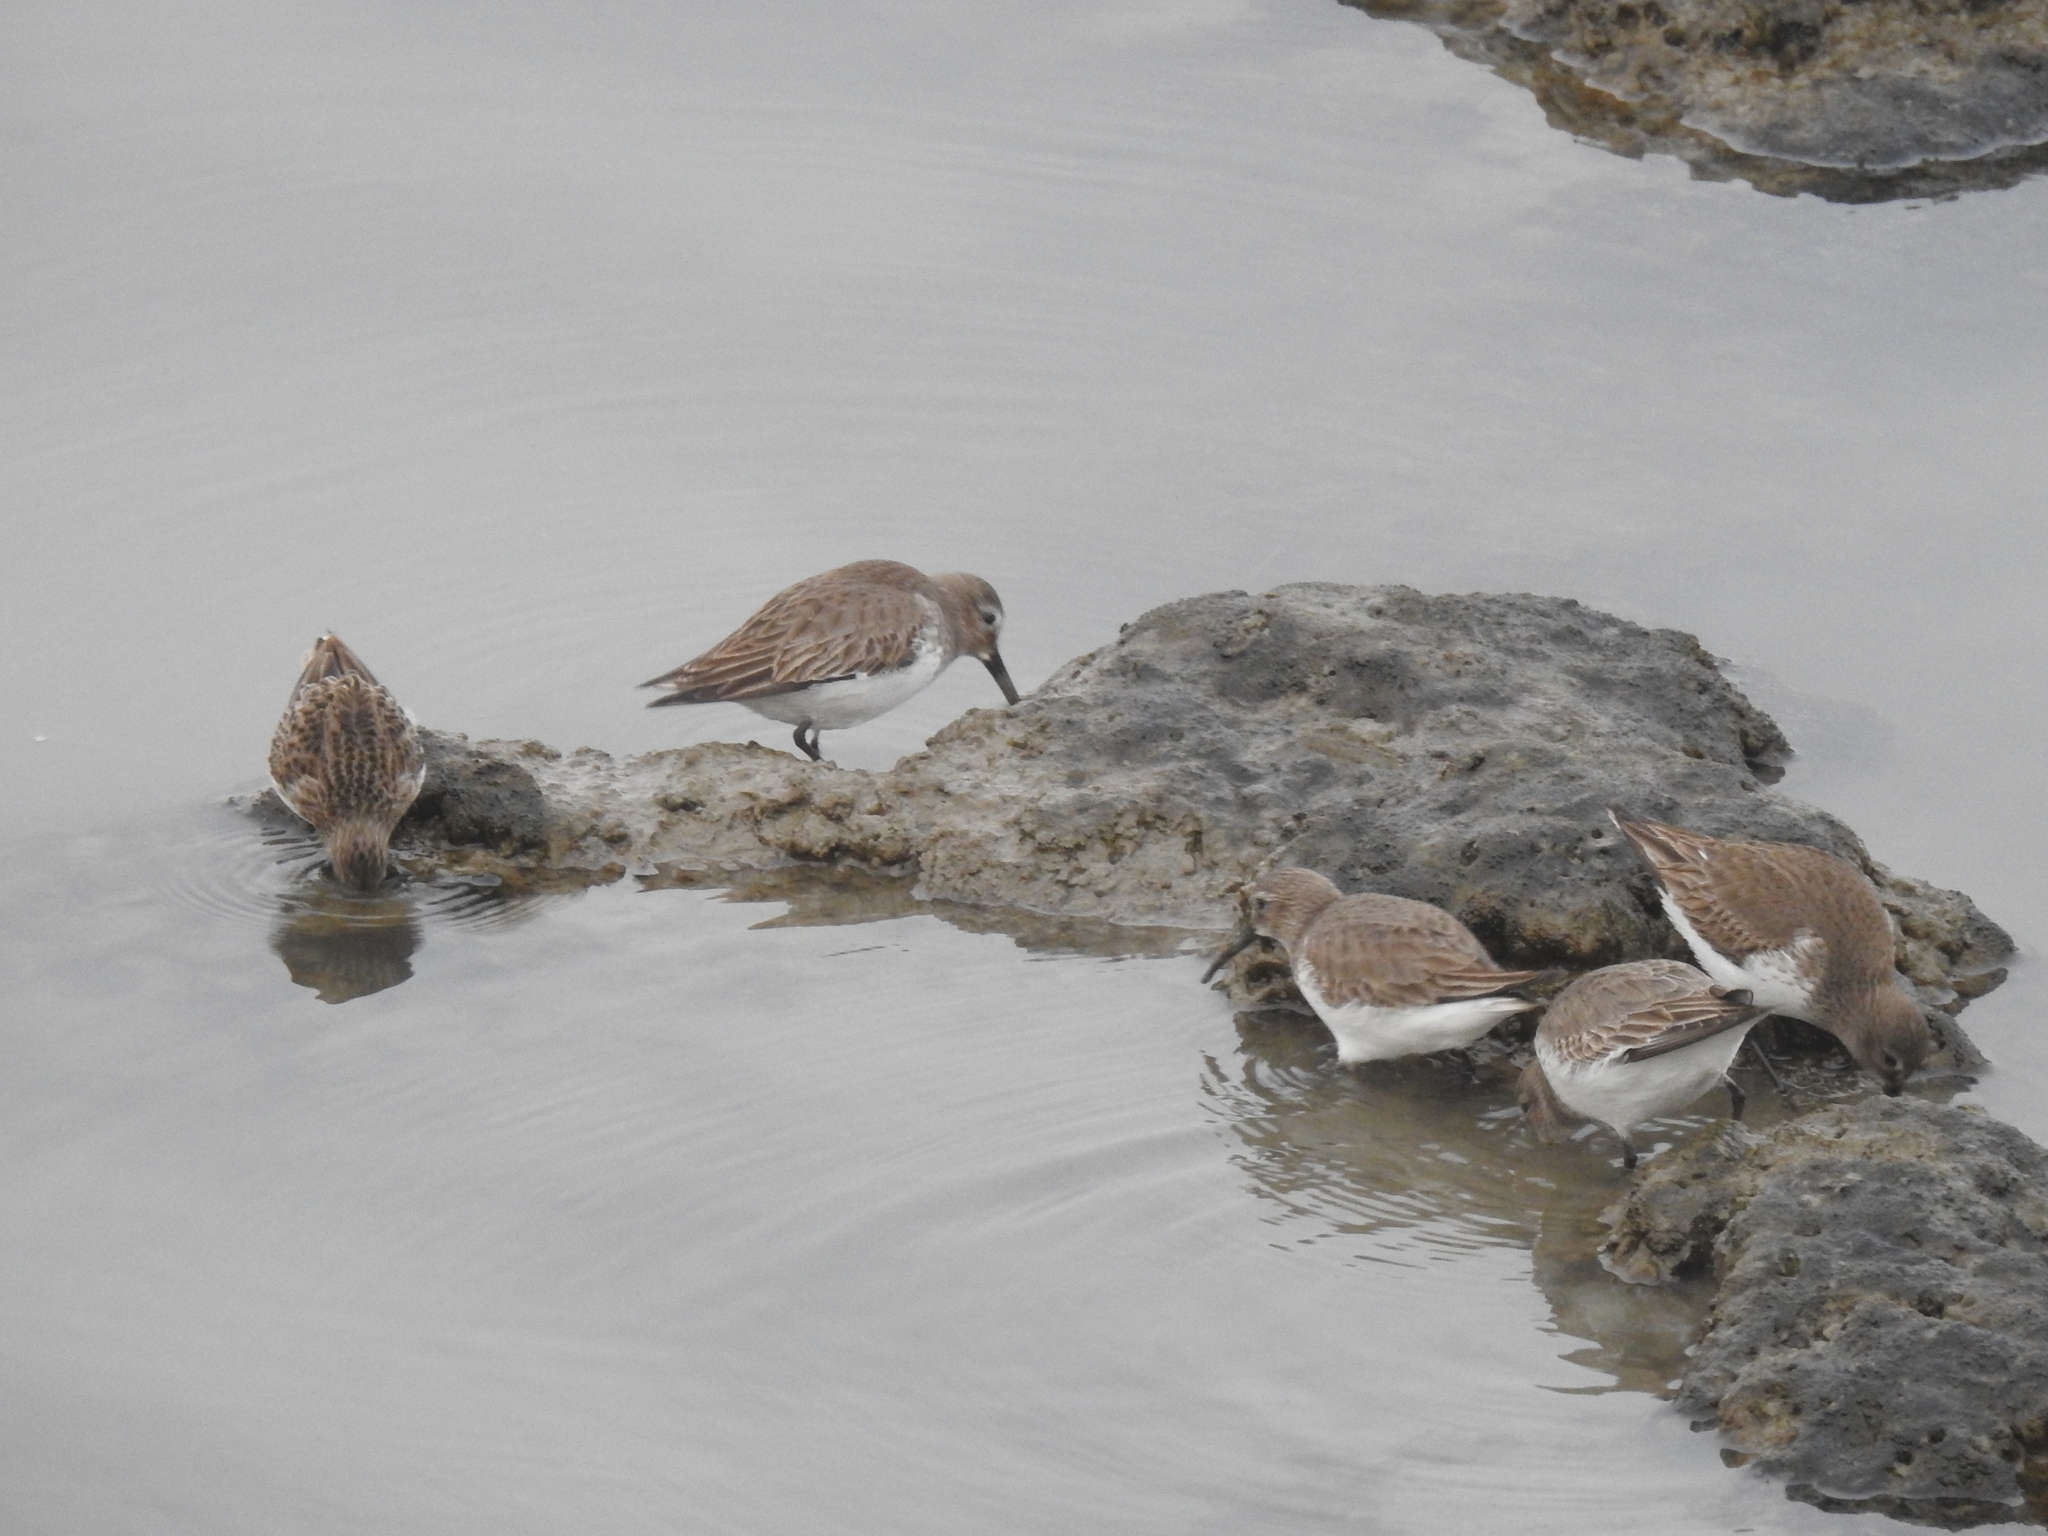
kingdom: Animalia
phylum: Chordata
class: Aves
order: Charadriiformes
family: Scolopacidae
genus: Calidris
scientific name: Calidris alpina
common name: Dunlin
